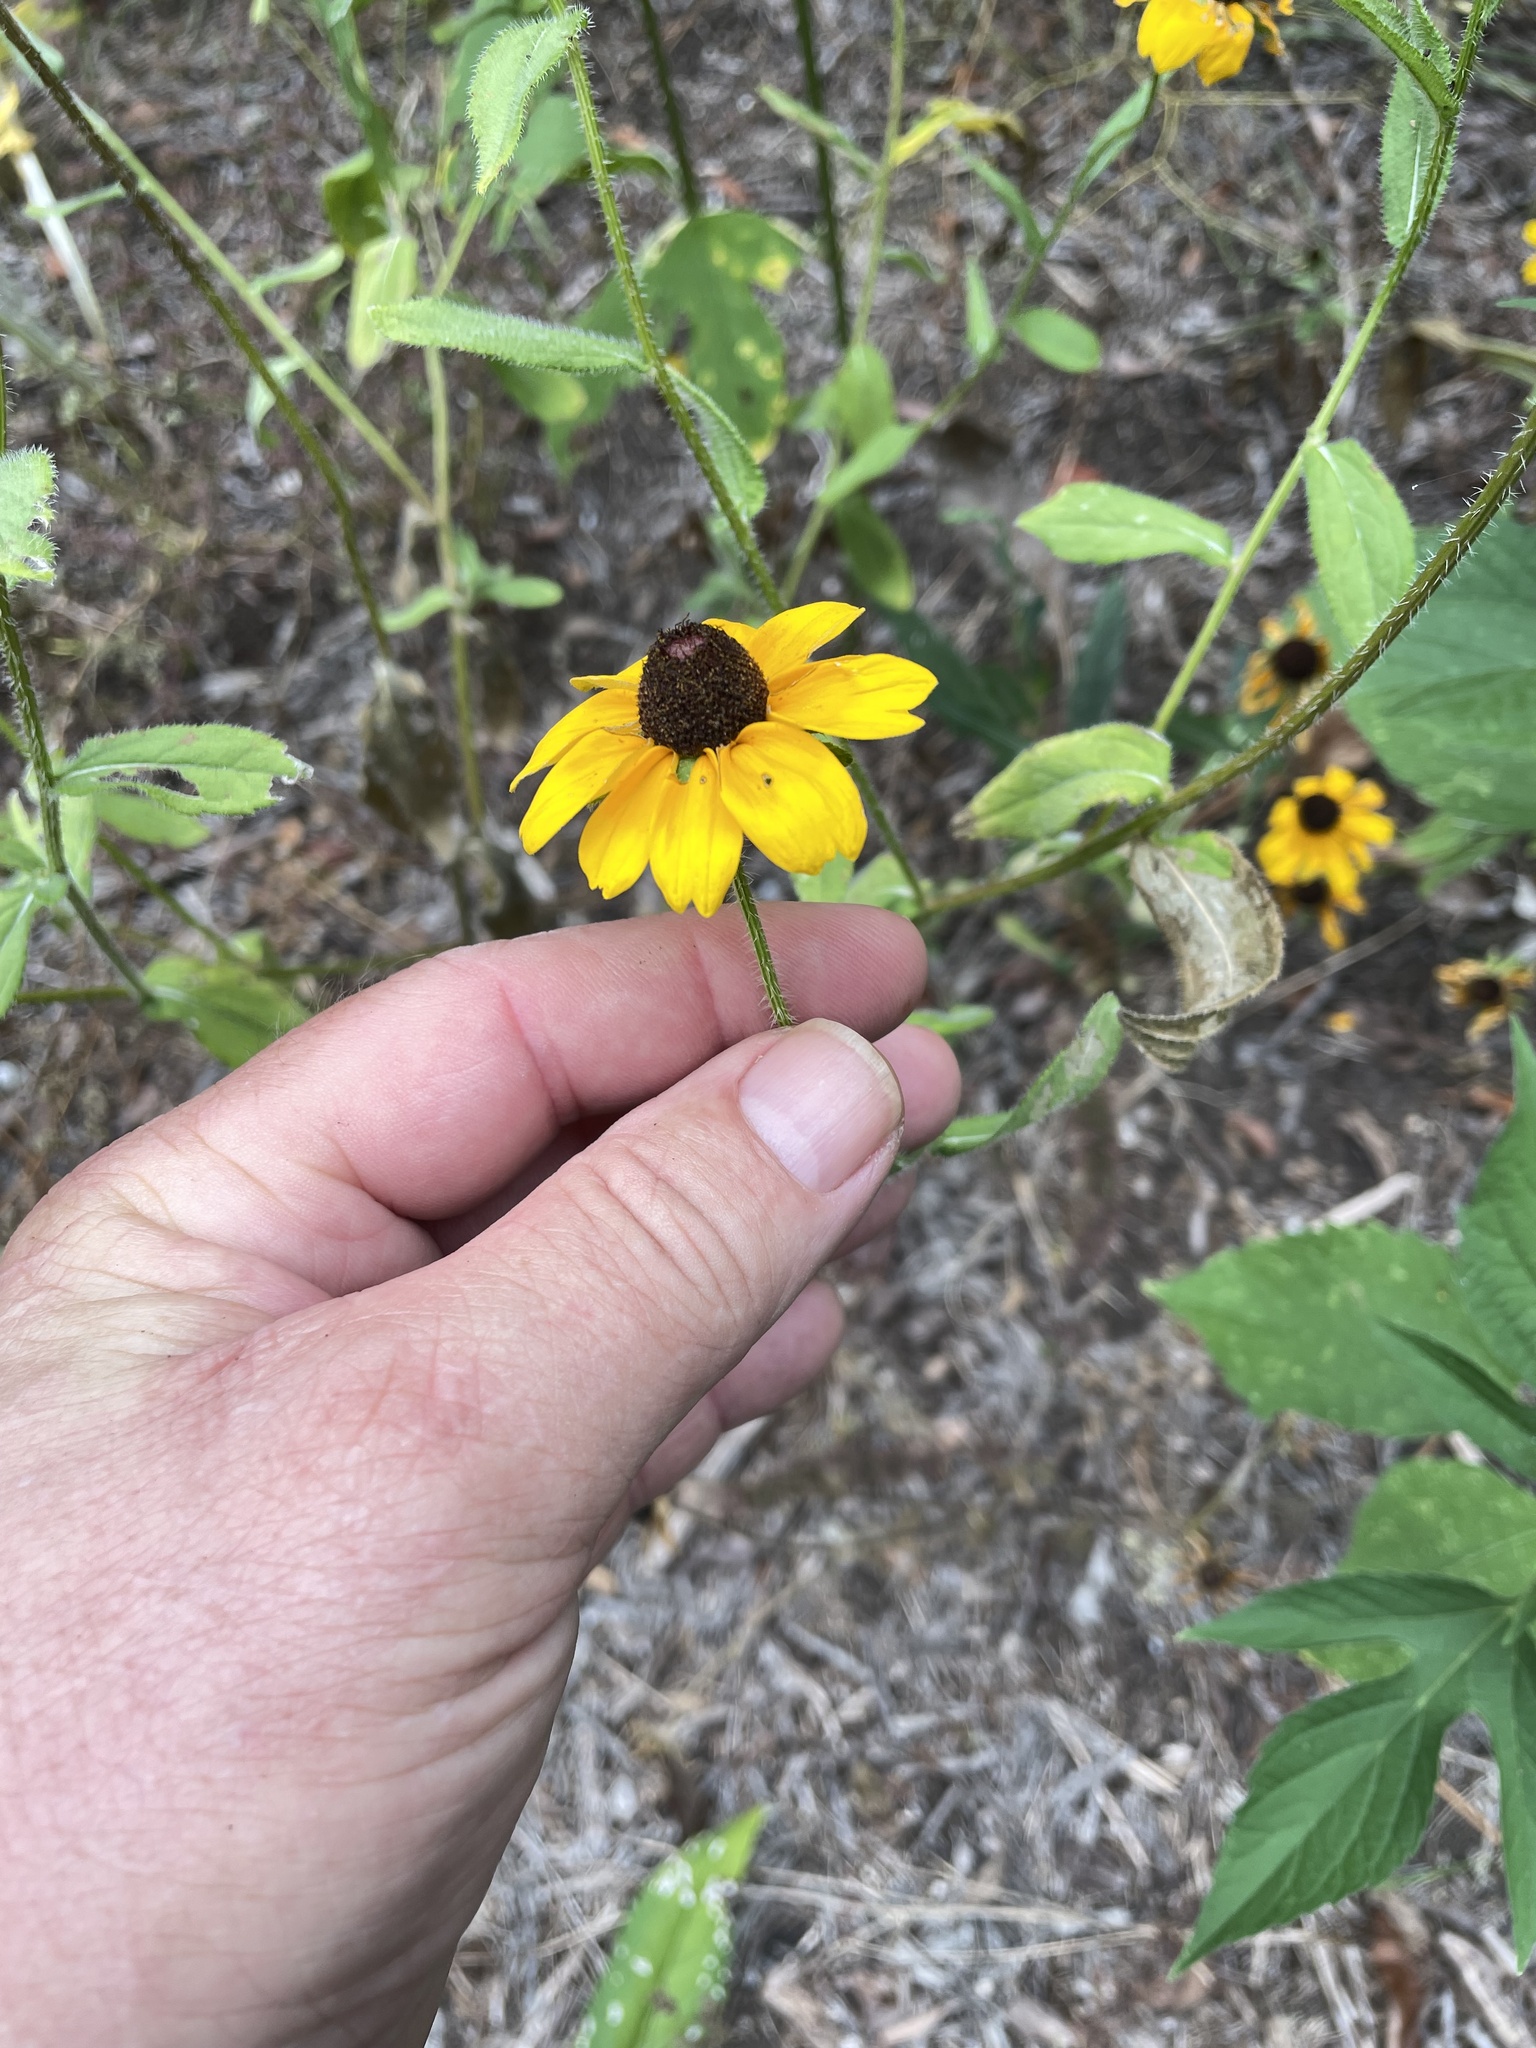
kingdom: Plantae
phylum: Tracheophyta
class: Magnoliopsida
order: Asterales
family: Asteraceae
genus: Rudbeckia
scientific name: Rudbeckia hirta
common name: Black-eyed-susan
